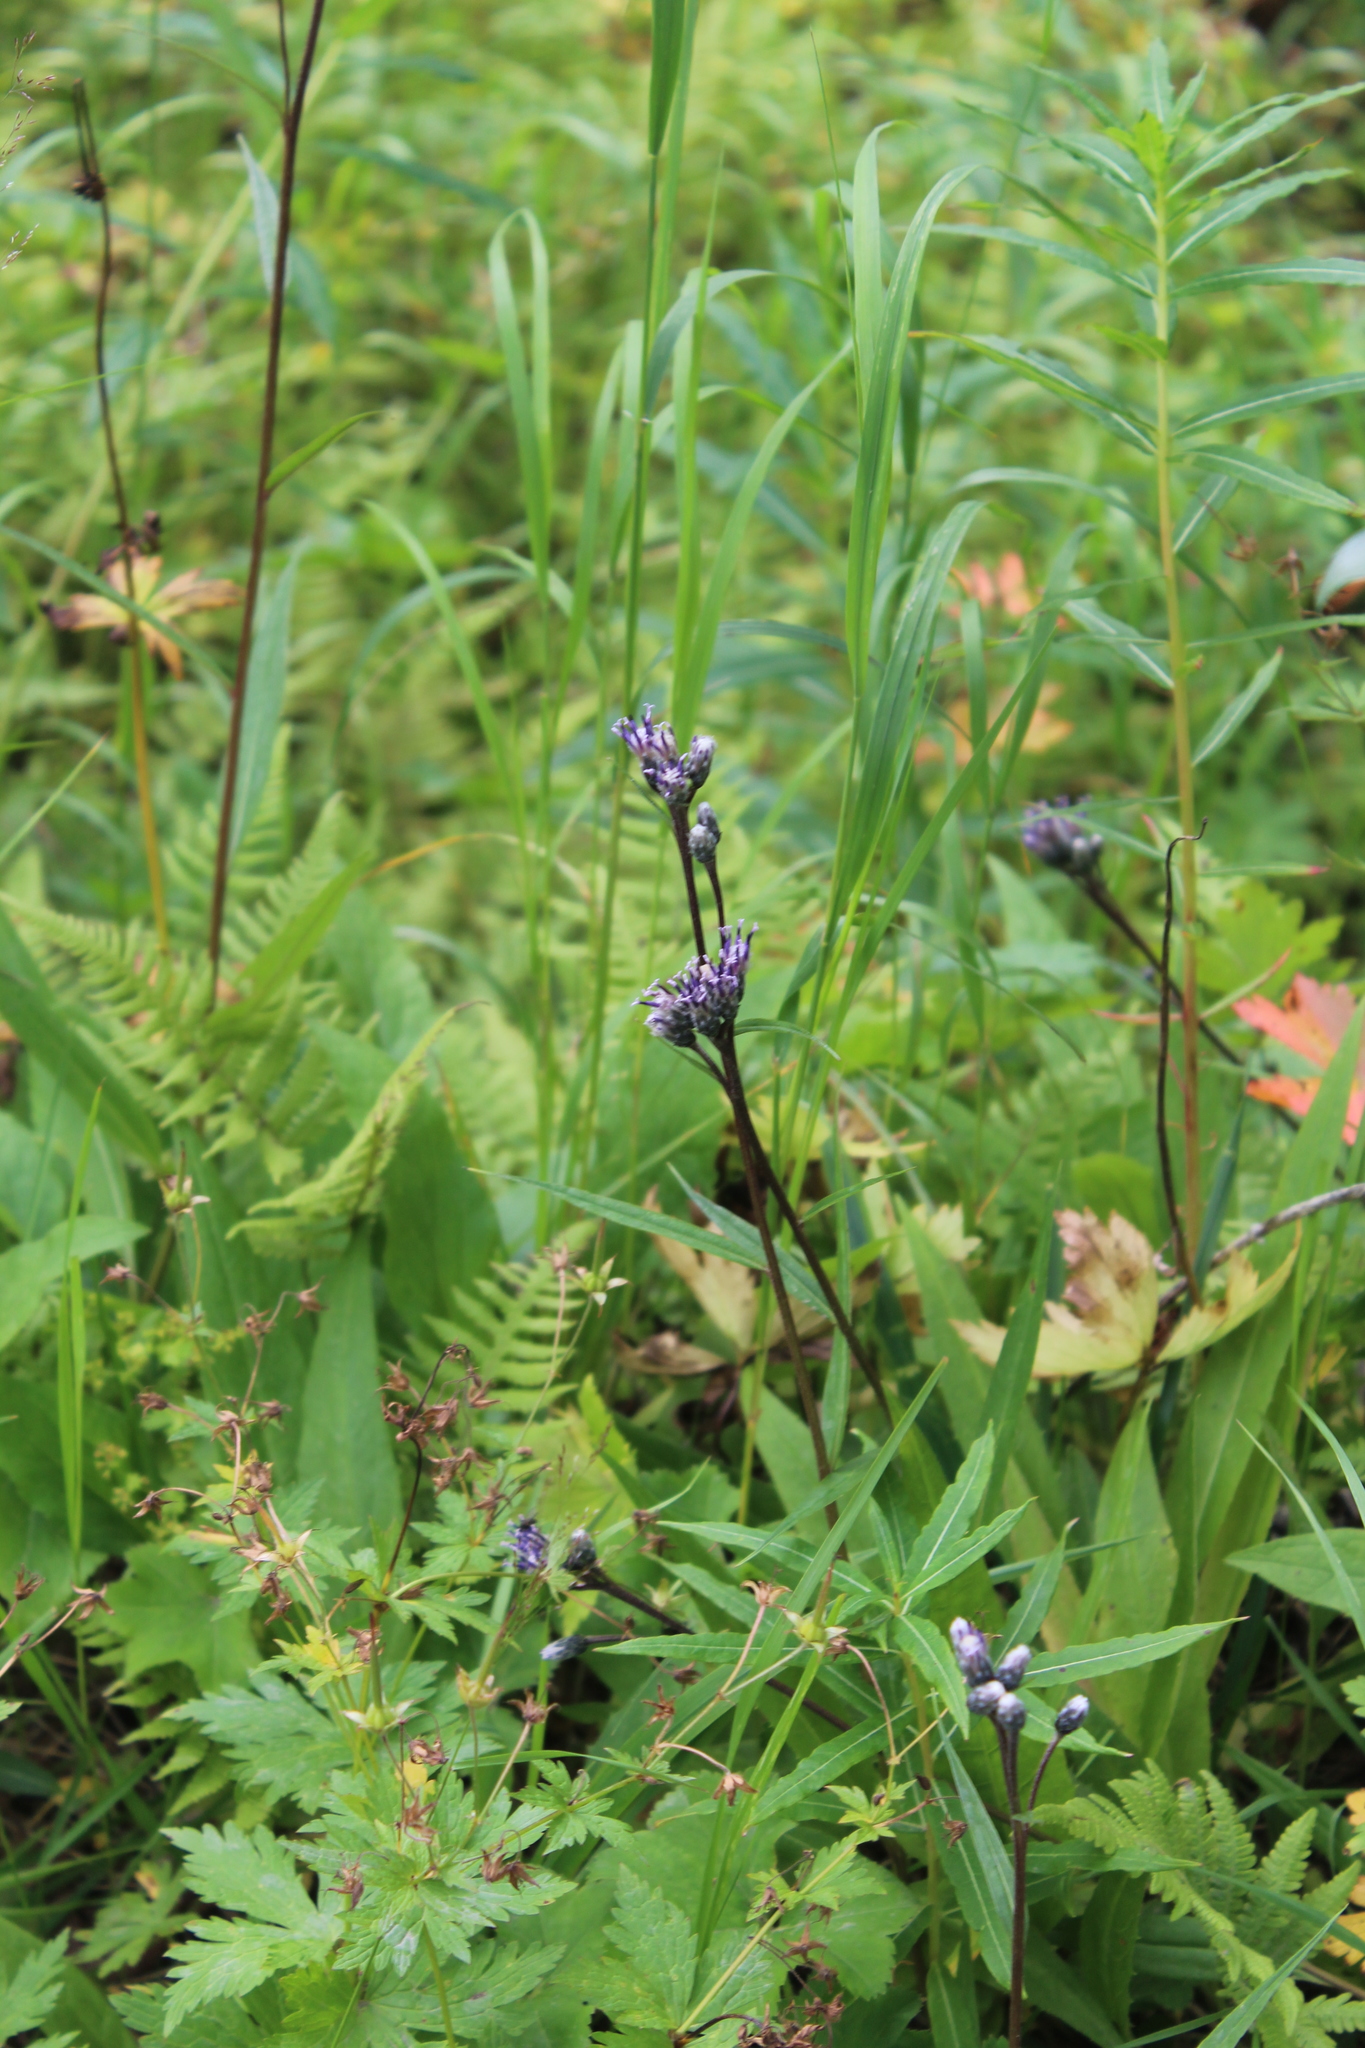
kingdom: Plantae
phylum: Tracheophyta
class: Magnoliopsida
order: Asterales
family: Asteraceae
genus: Saussurea
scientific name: Saussurea alpina
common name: Alpine saw-wort
